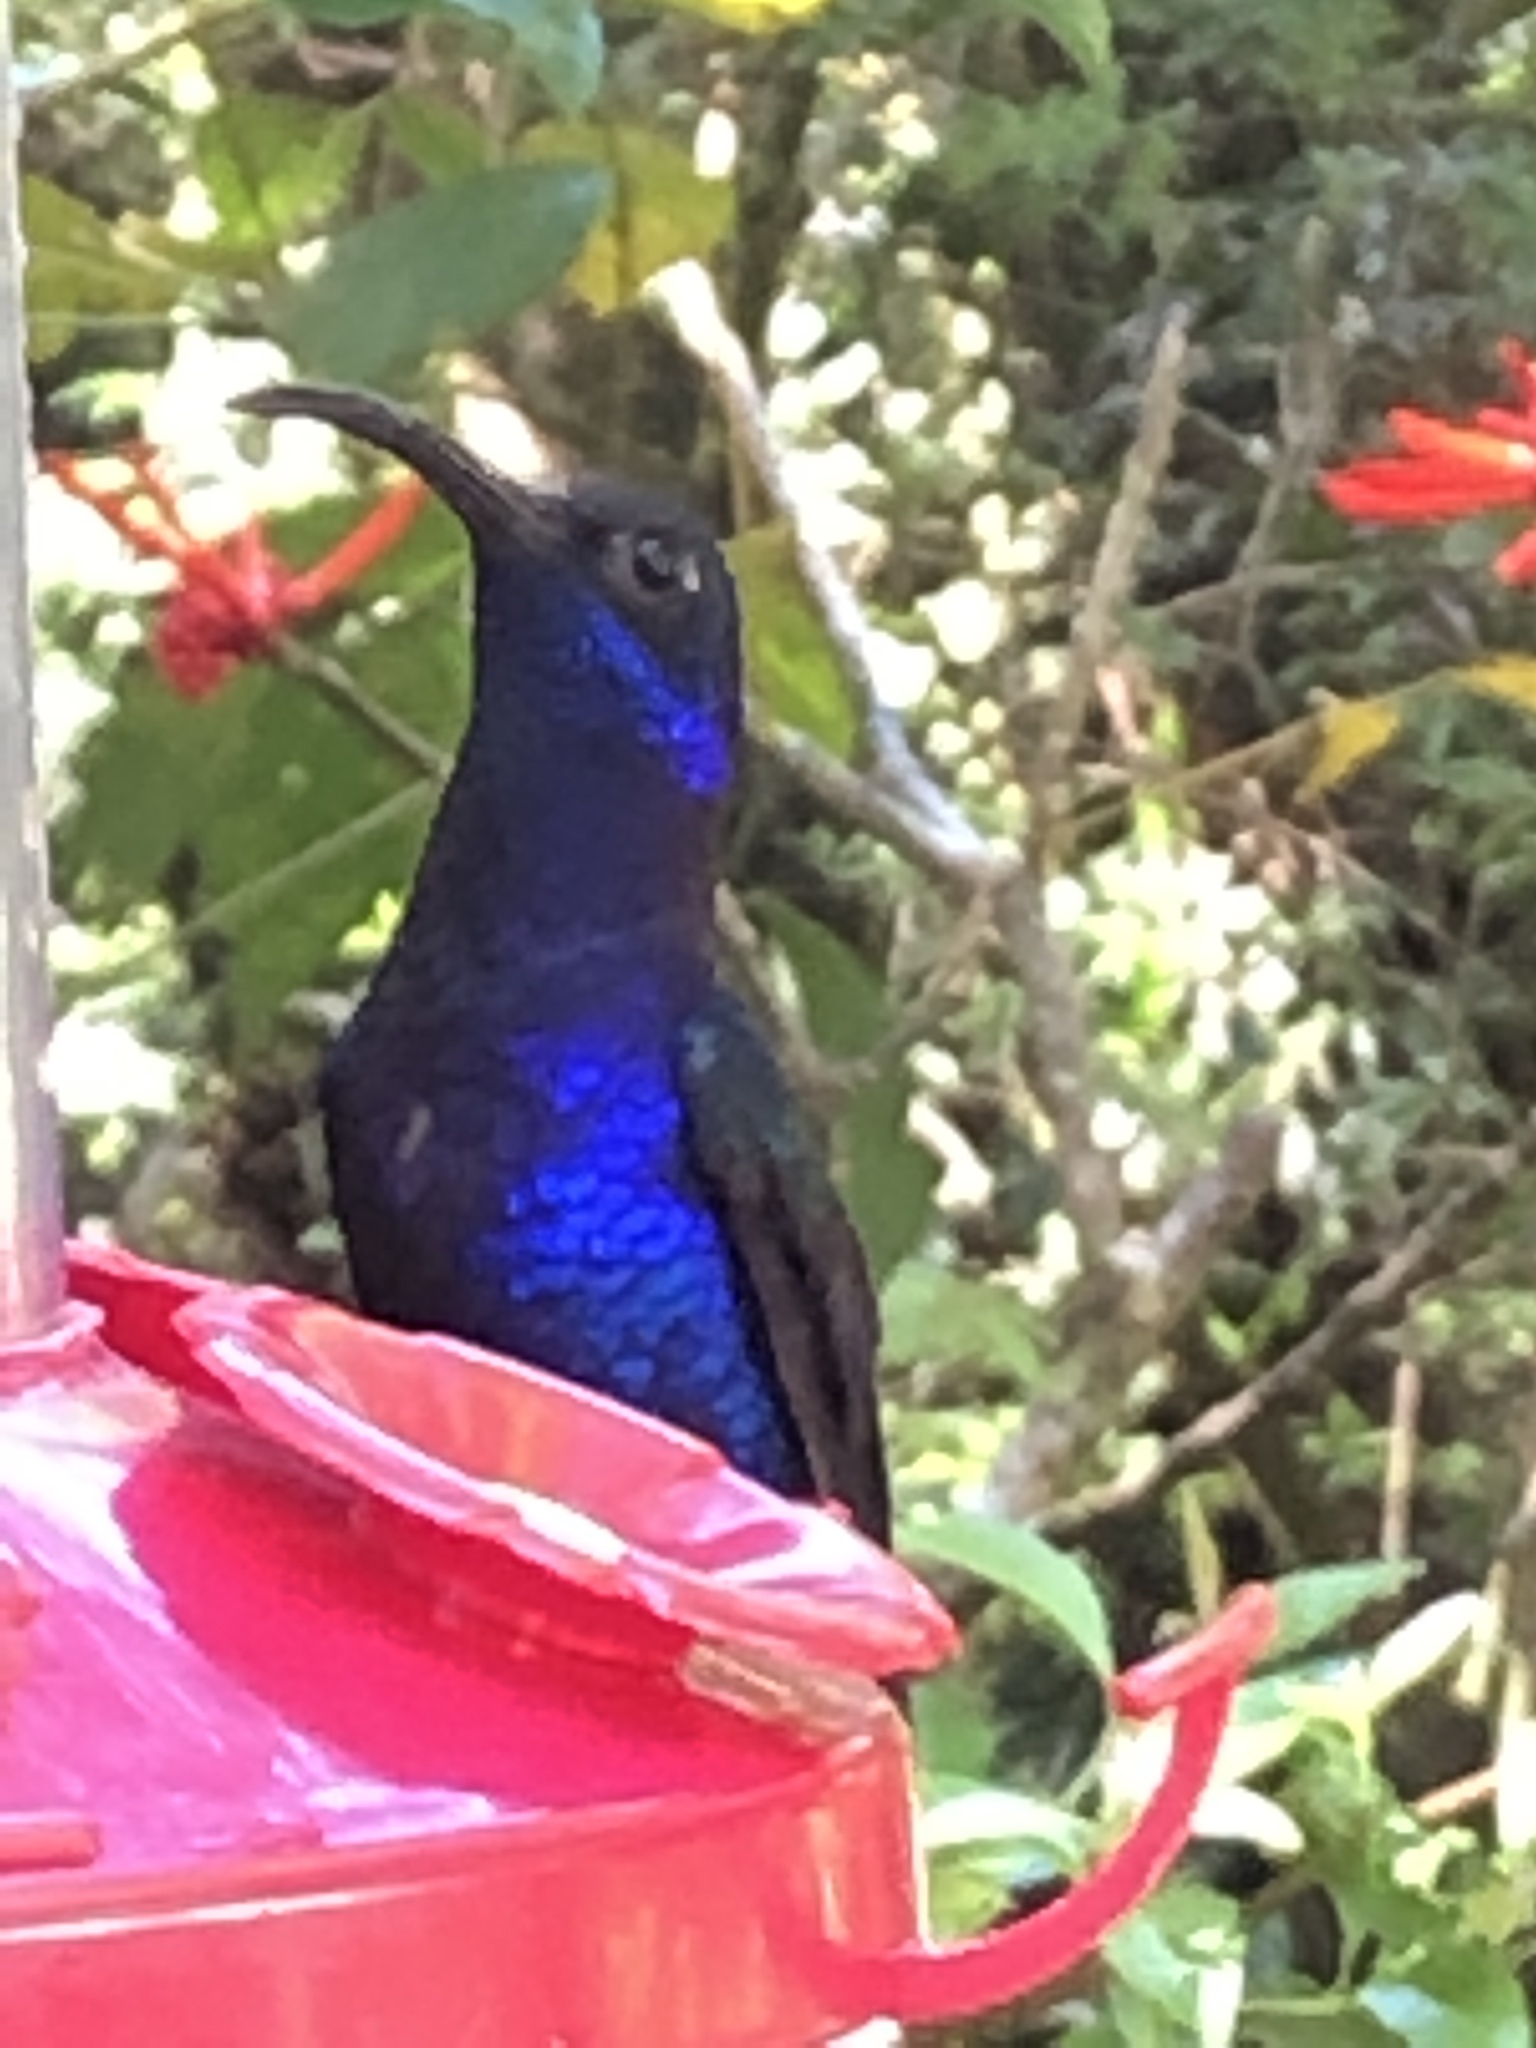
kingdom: Animalia
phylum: Chordata
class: Aves
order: Apodiformes
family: Trochilidae
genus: Campylopterus
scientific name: Campylopterus hemileucurus
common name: Violet sabrewing
